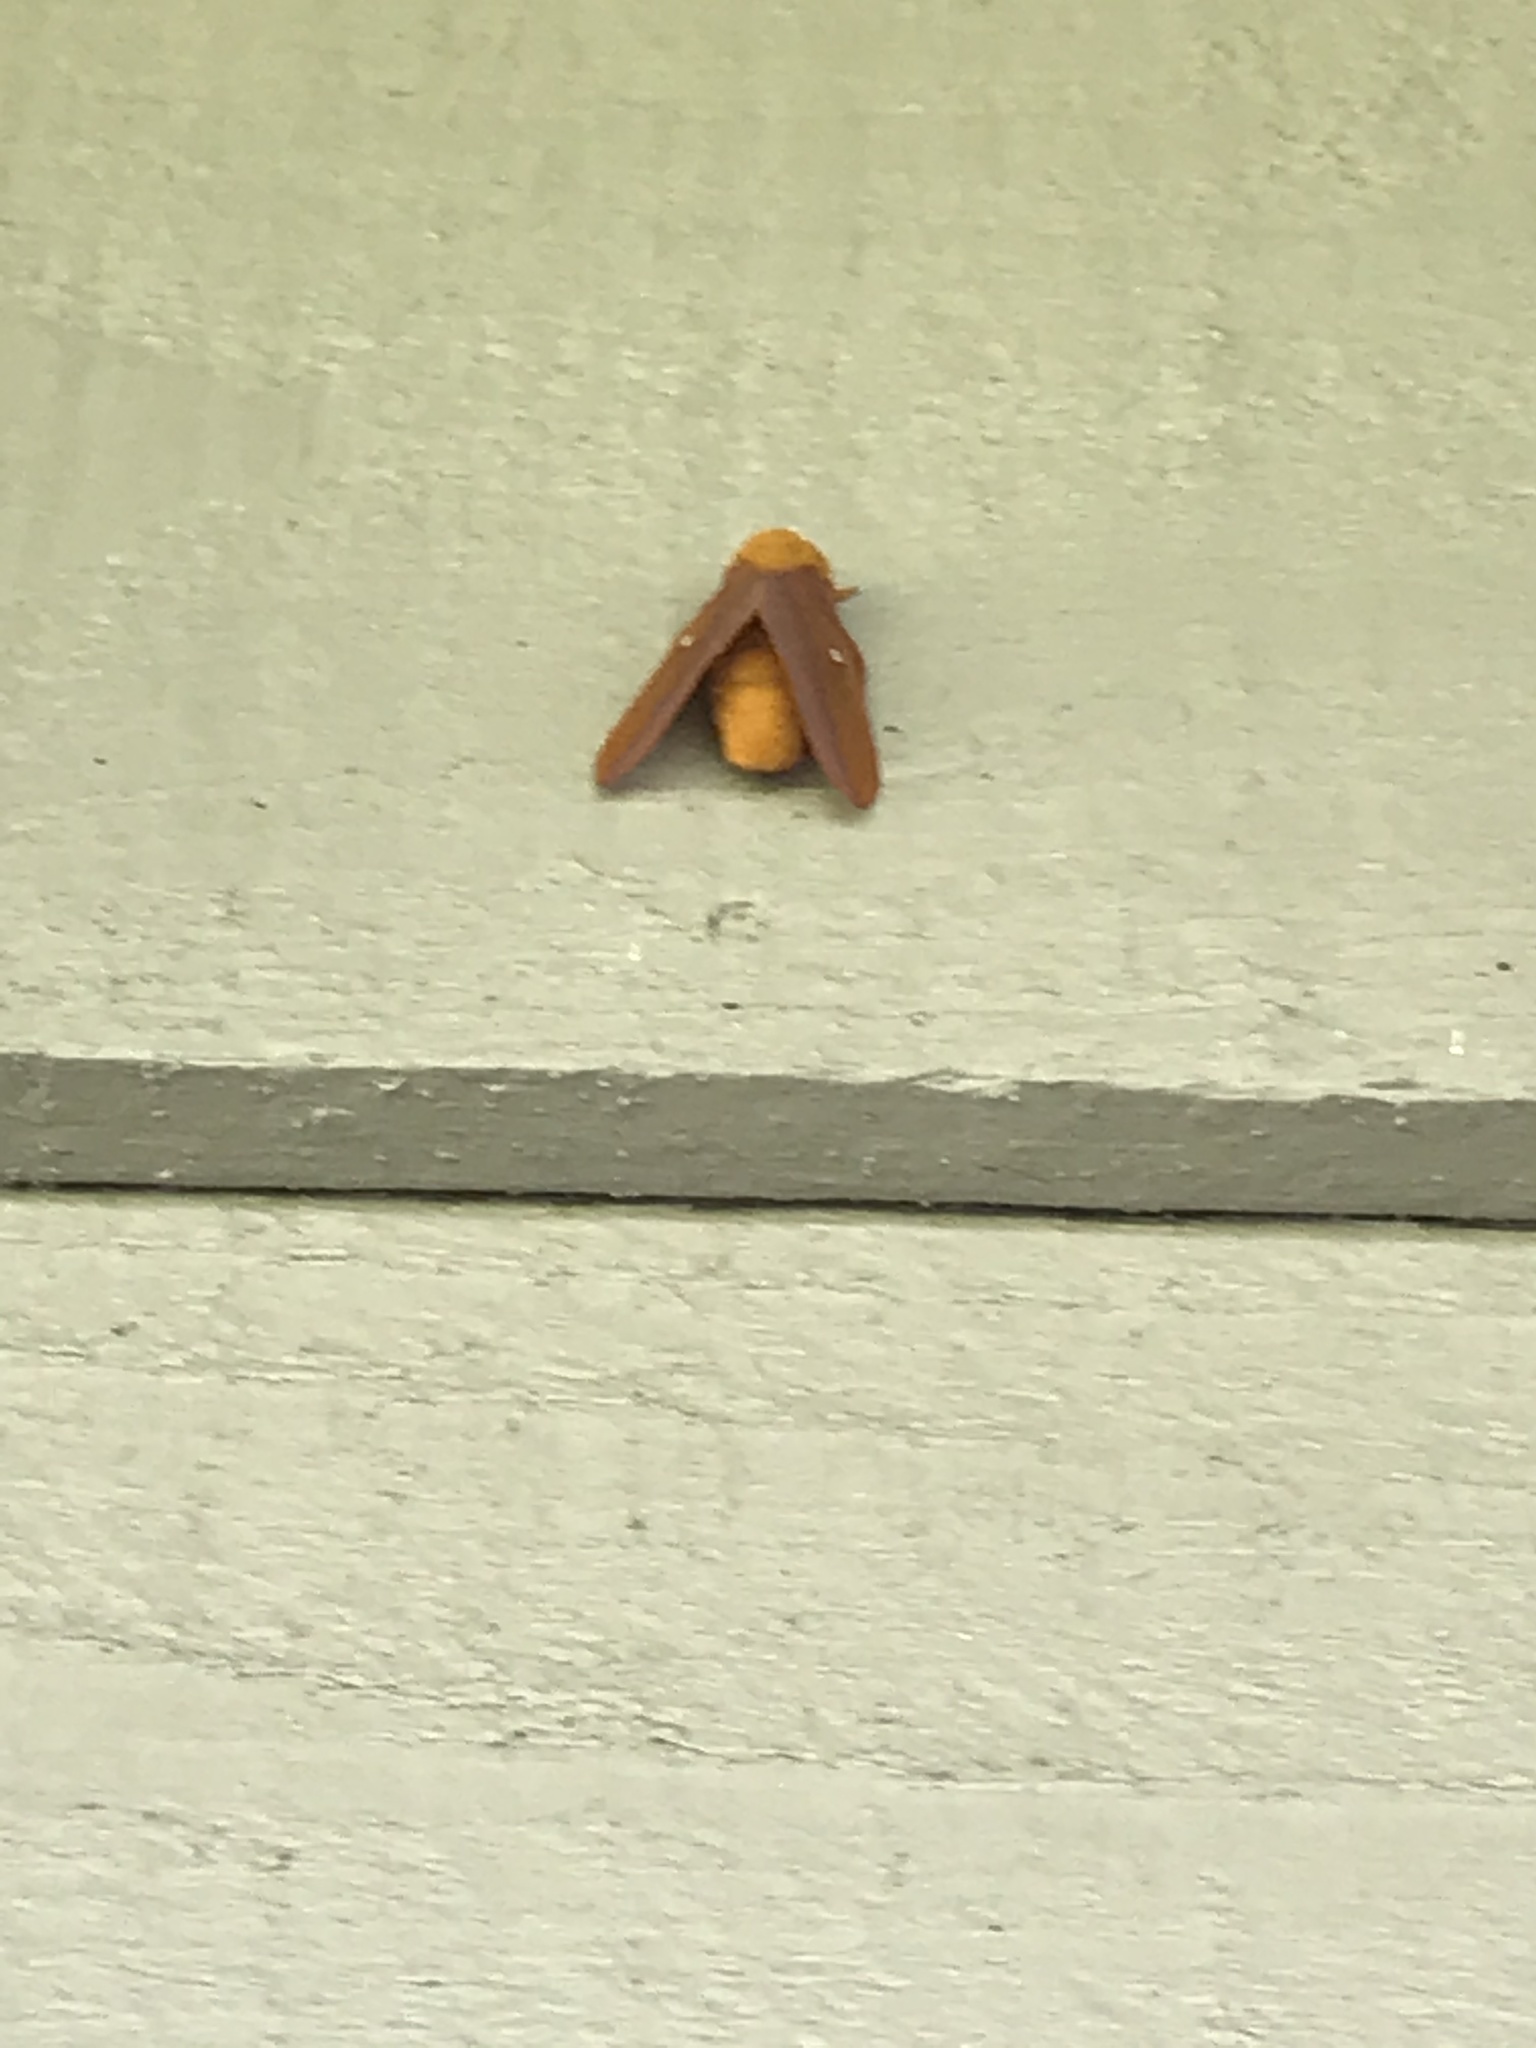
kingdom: Animalia
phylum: Arthropoda
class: Insecta
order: Lepidoptera
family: Saturniidae
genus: Anisota
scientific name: Anisota virginiensis
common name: Pink striped oakworm moth
